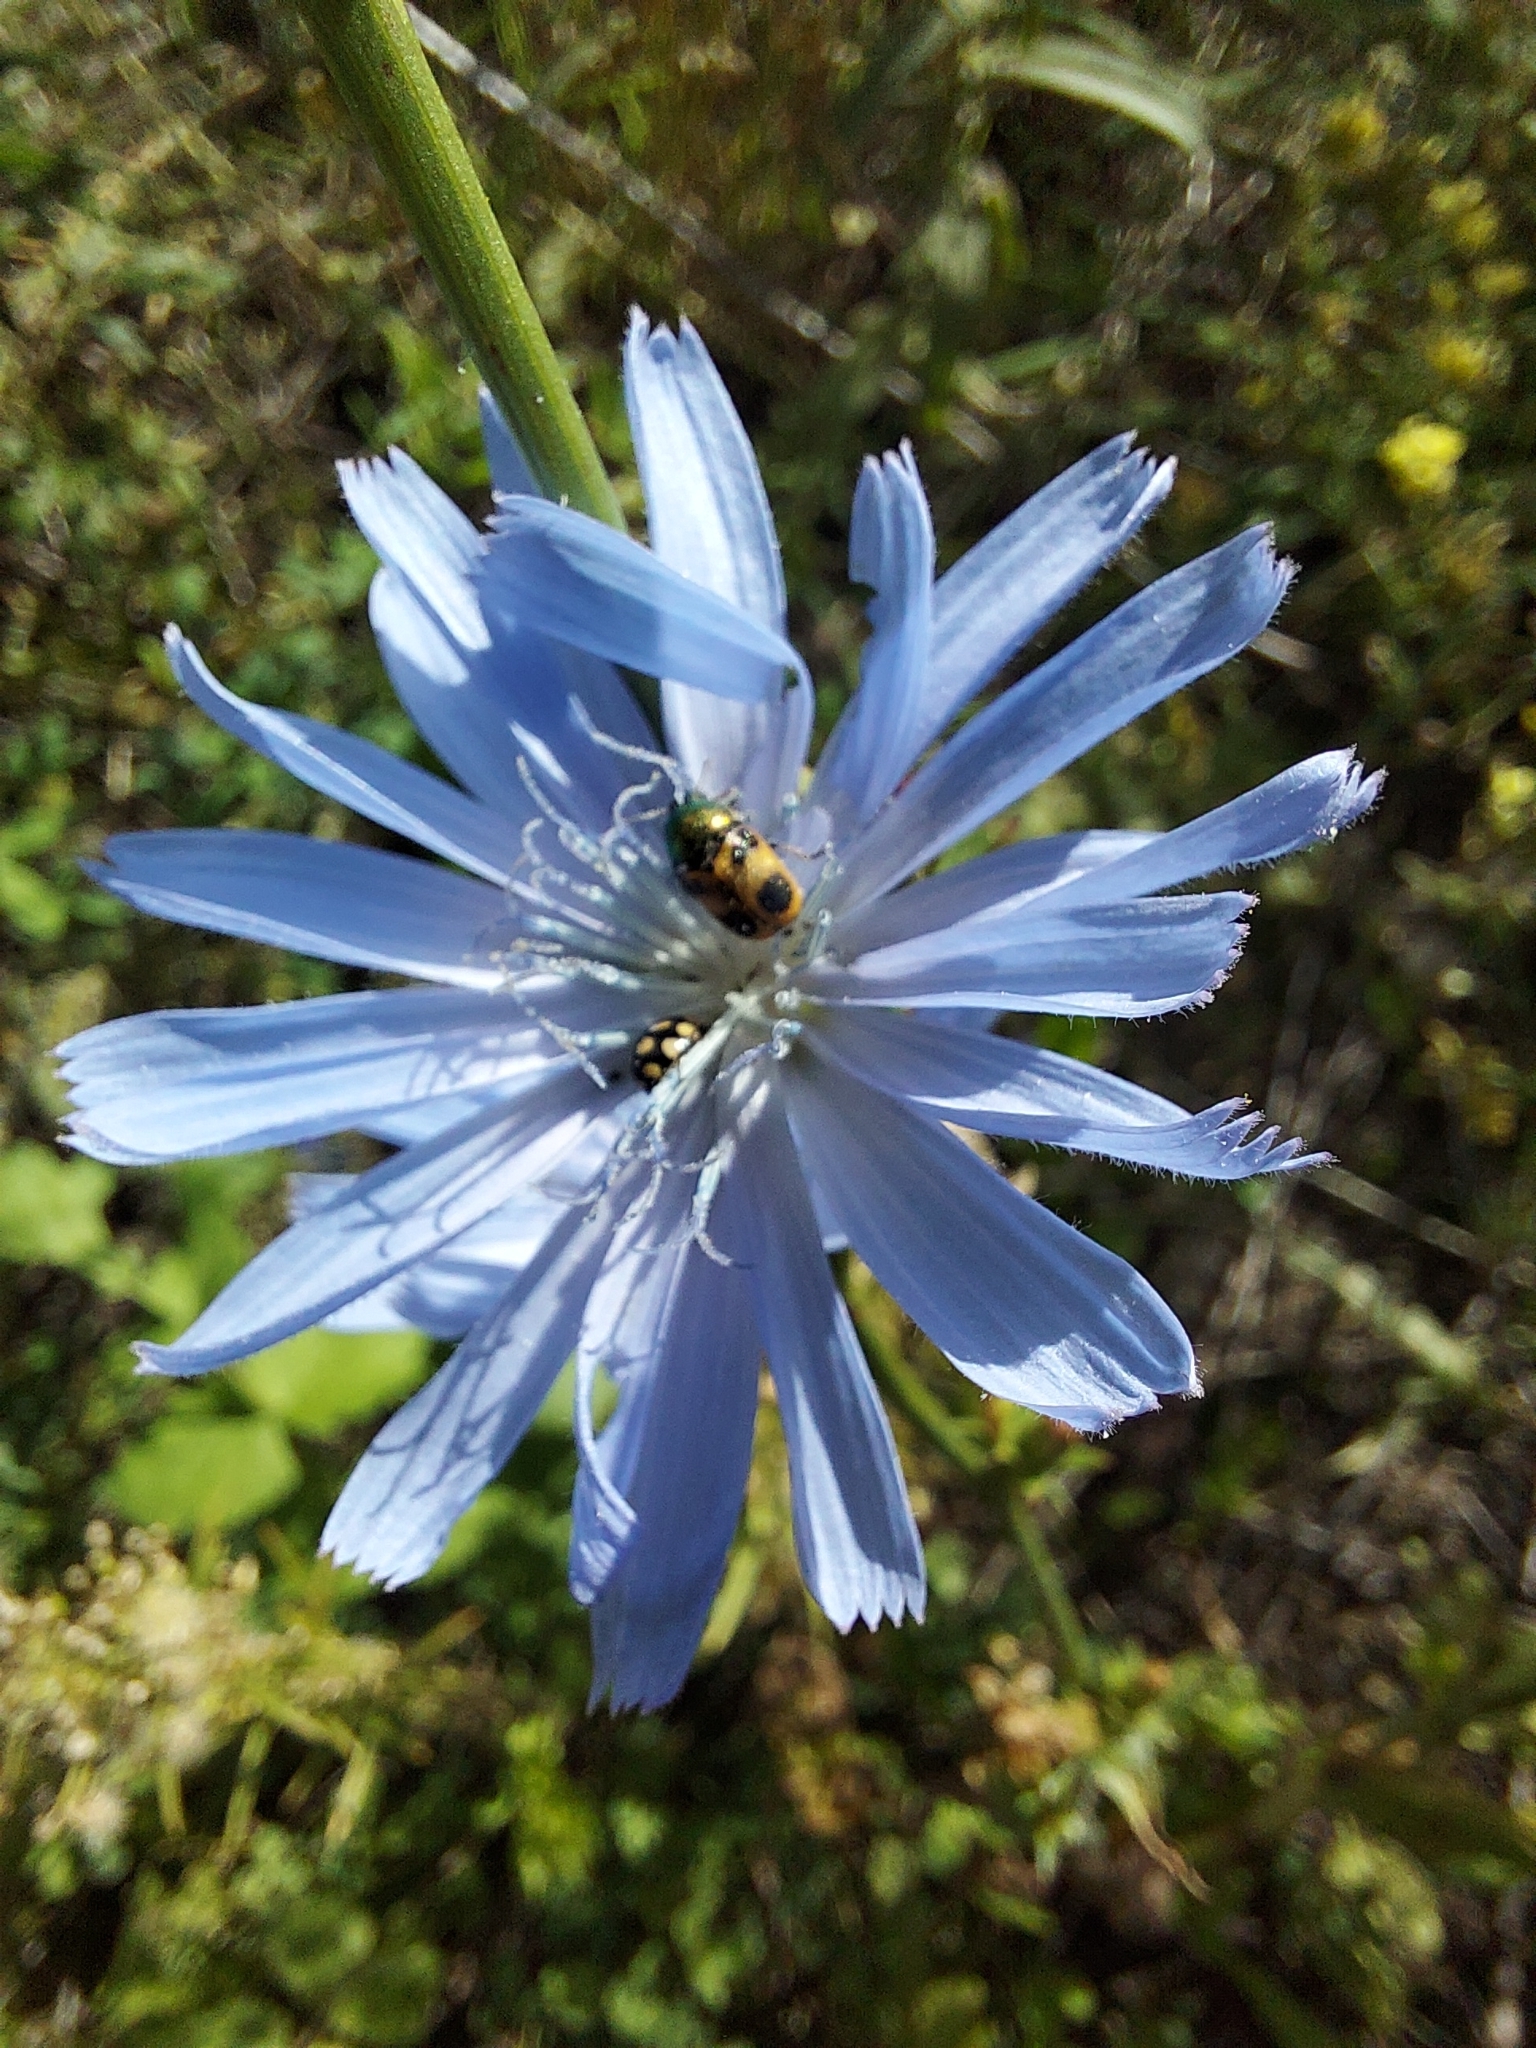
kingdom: Animalia
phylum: Arthropoda
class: Insecta
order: Coleoptera
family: Chrysomelidae
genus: Cryptocephalus
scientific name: Cryptocephalus laetus
